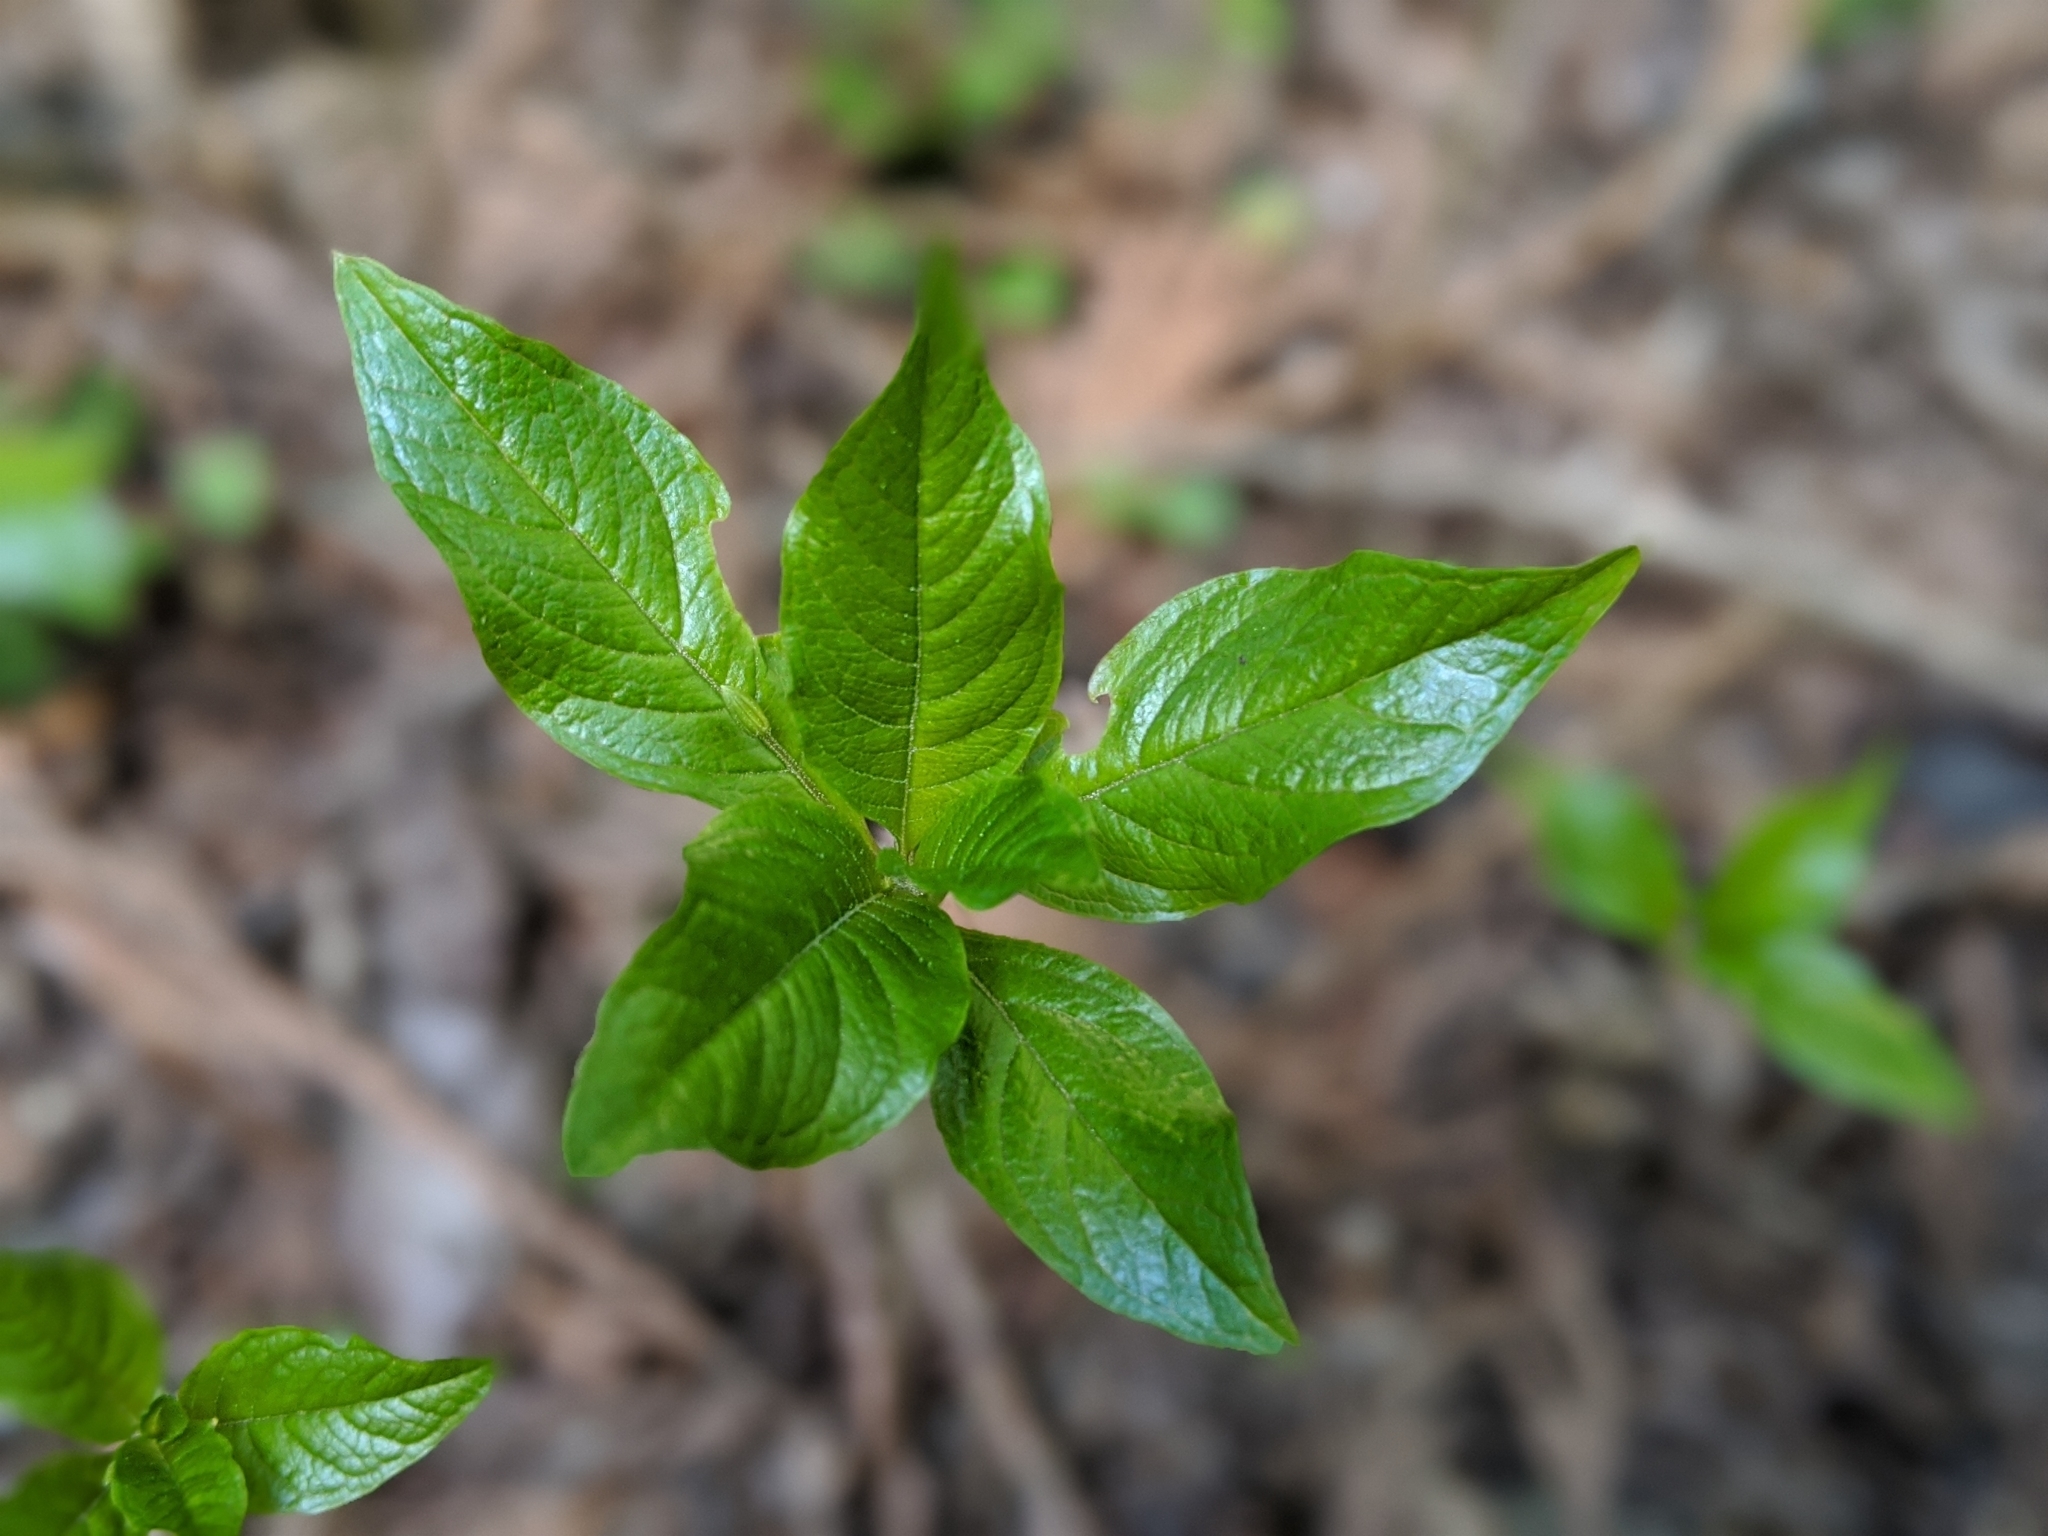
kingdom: Plantae
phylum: Tracheophyta
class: Magnoliopsida
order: Ericales
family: Primulaceae
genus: Lysimachia
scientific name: Lysimachia latifolia
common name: Pacific starflower
